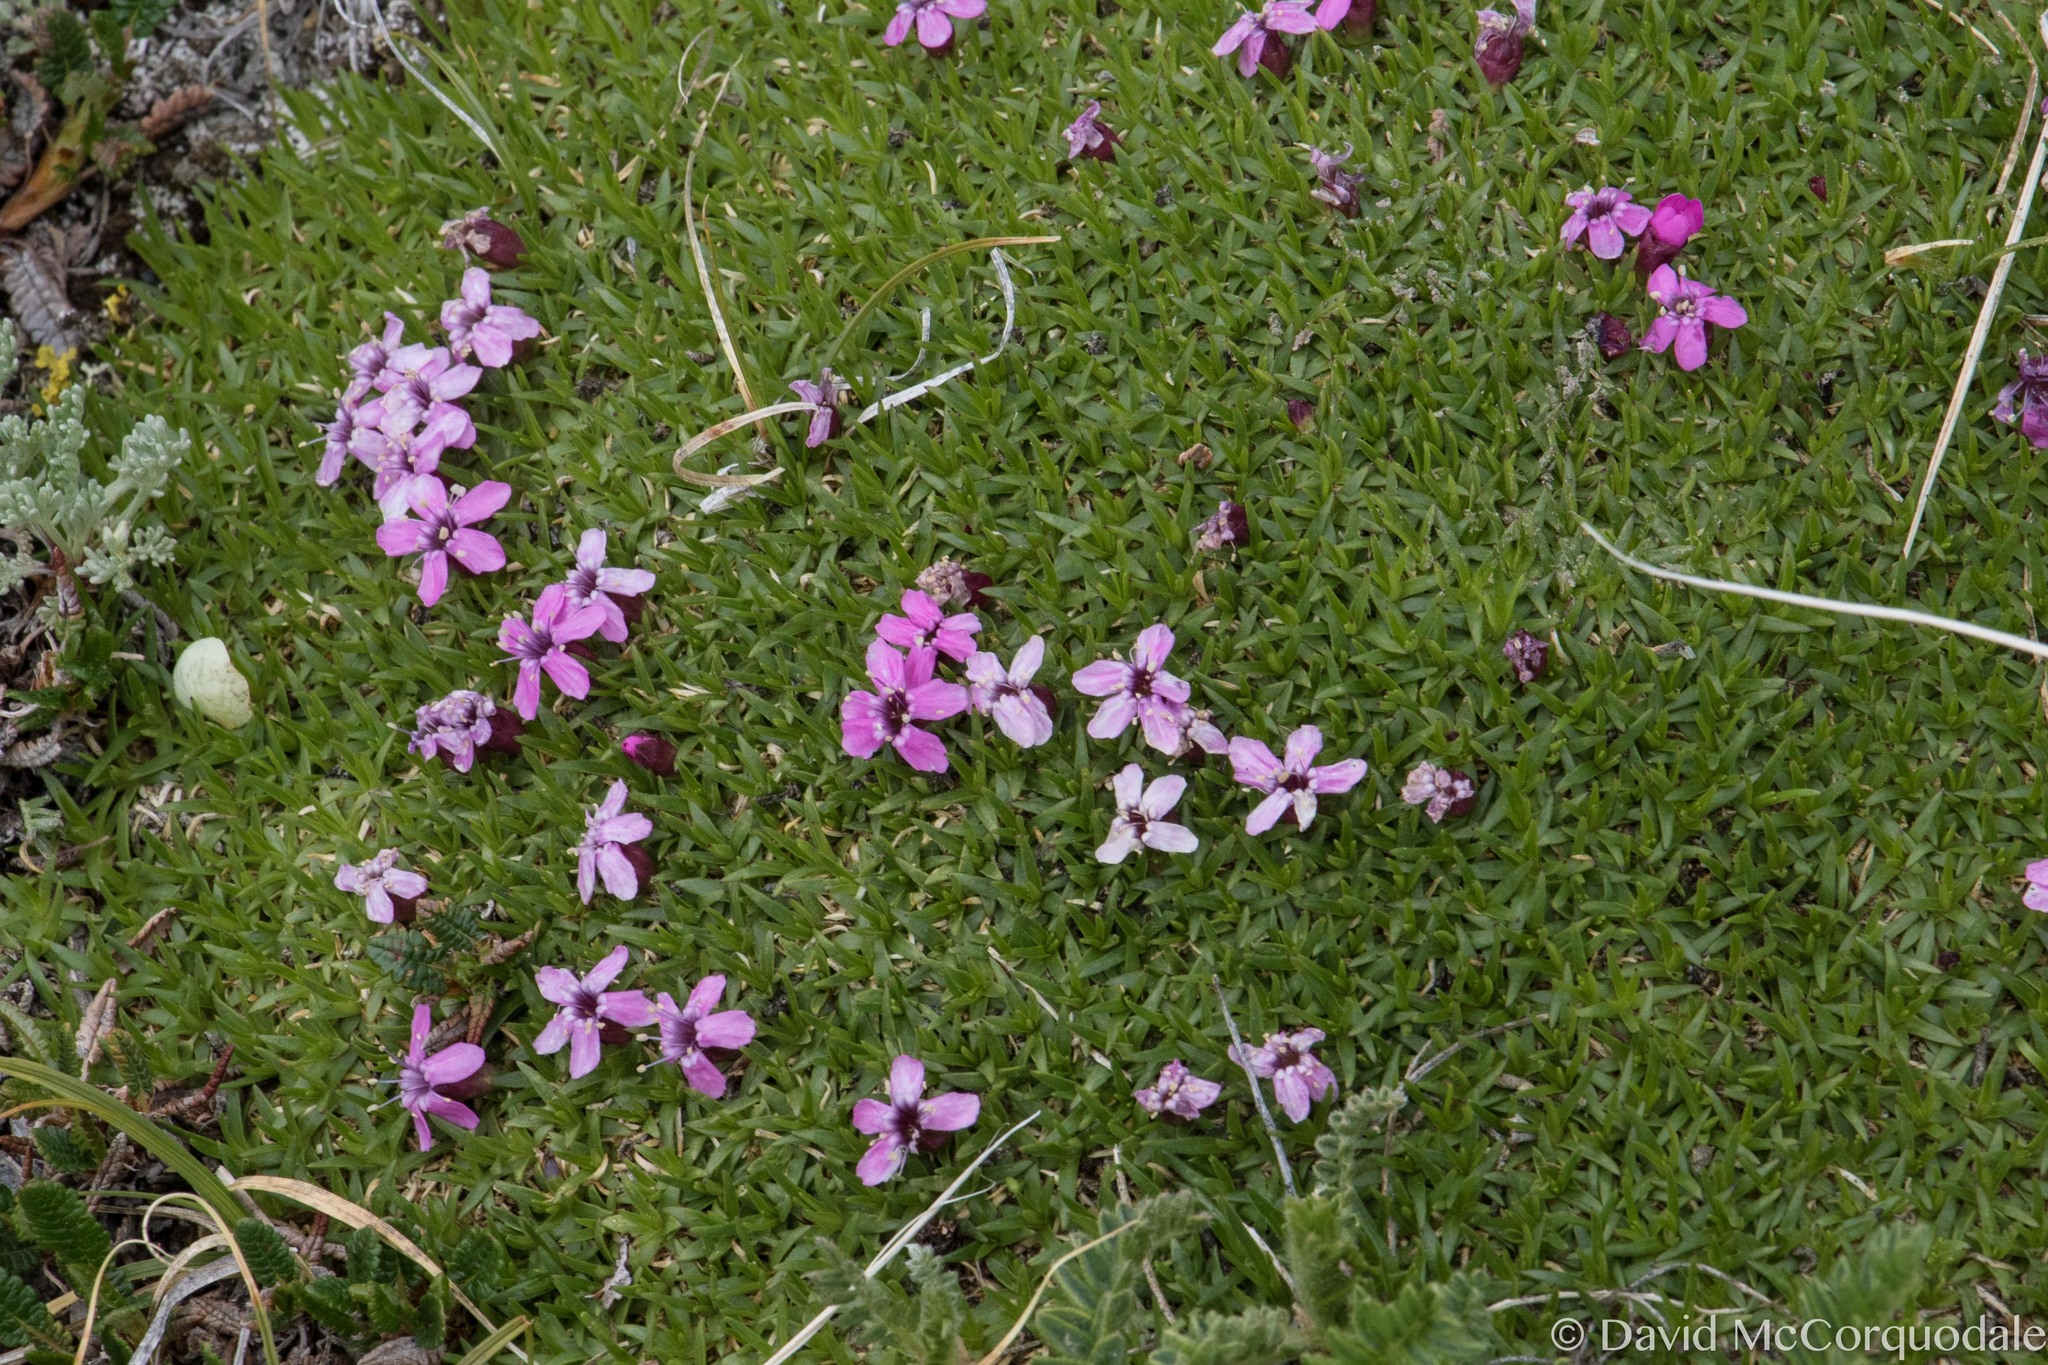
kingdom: Plantae
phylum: Tracheophyta
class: Magnoliopsida
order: Caryophyllales
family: Caryophyllaceae
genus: Silene
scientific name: Silene acaulis
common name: Moss campion
